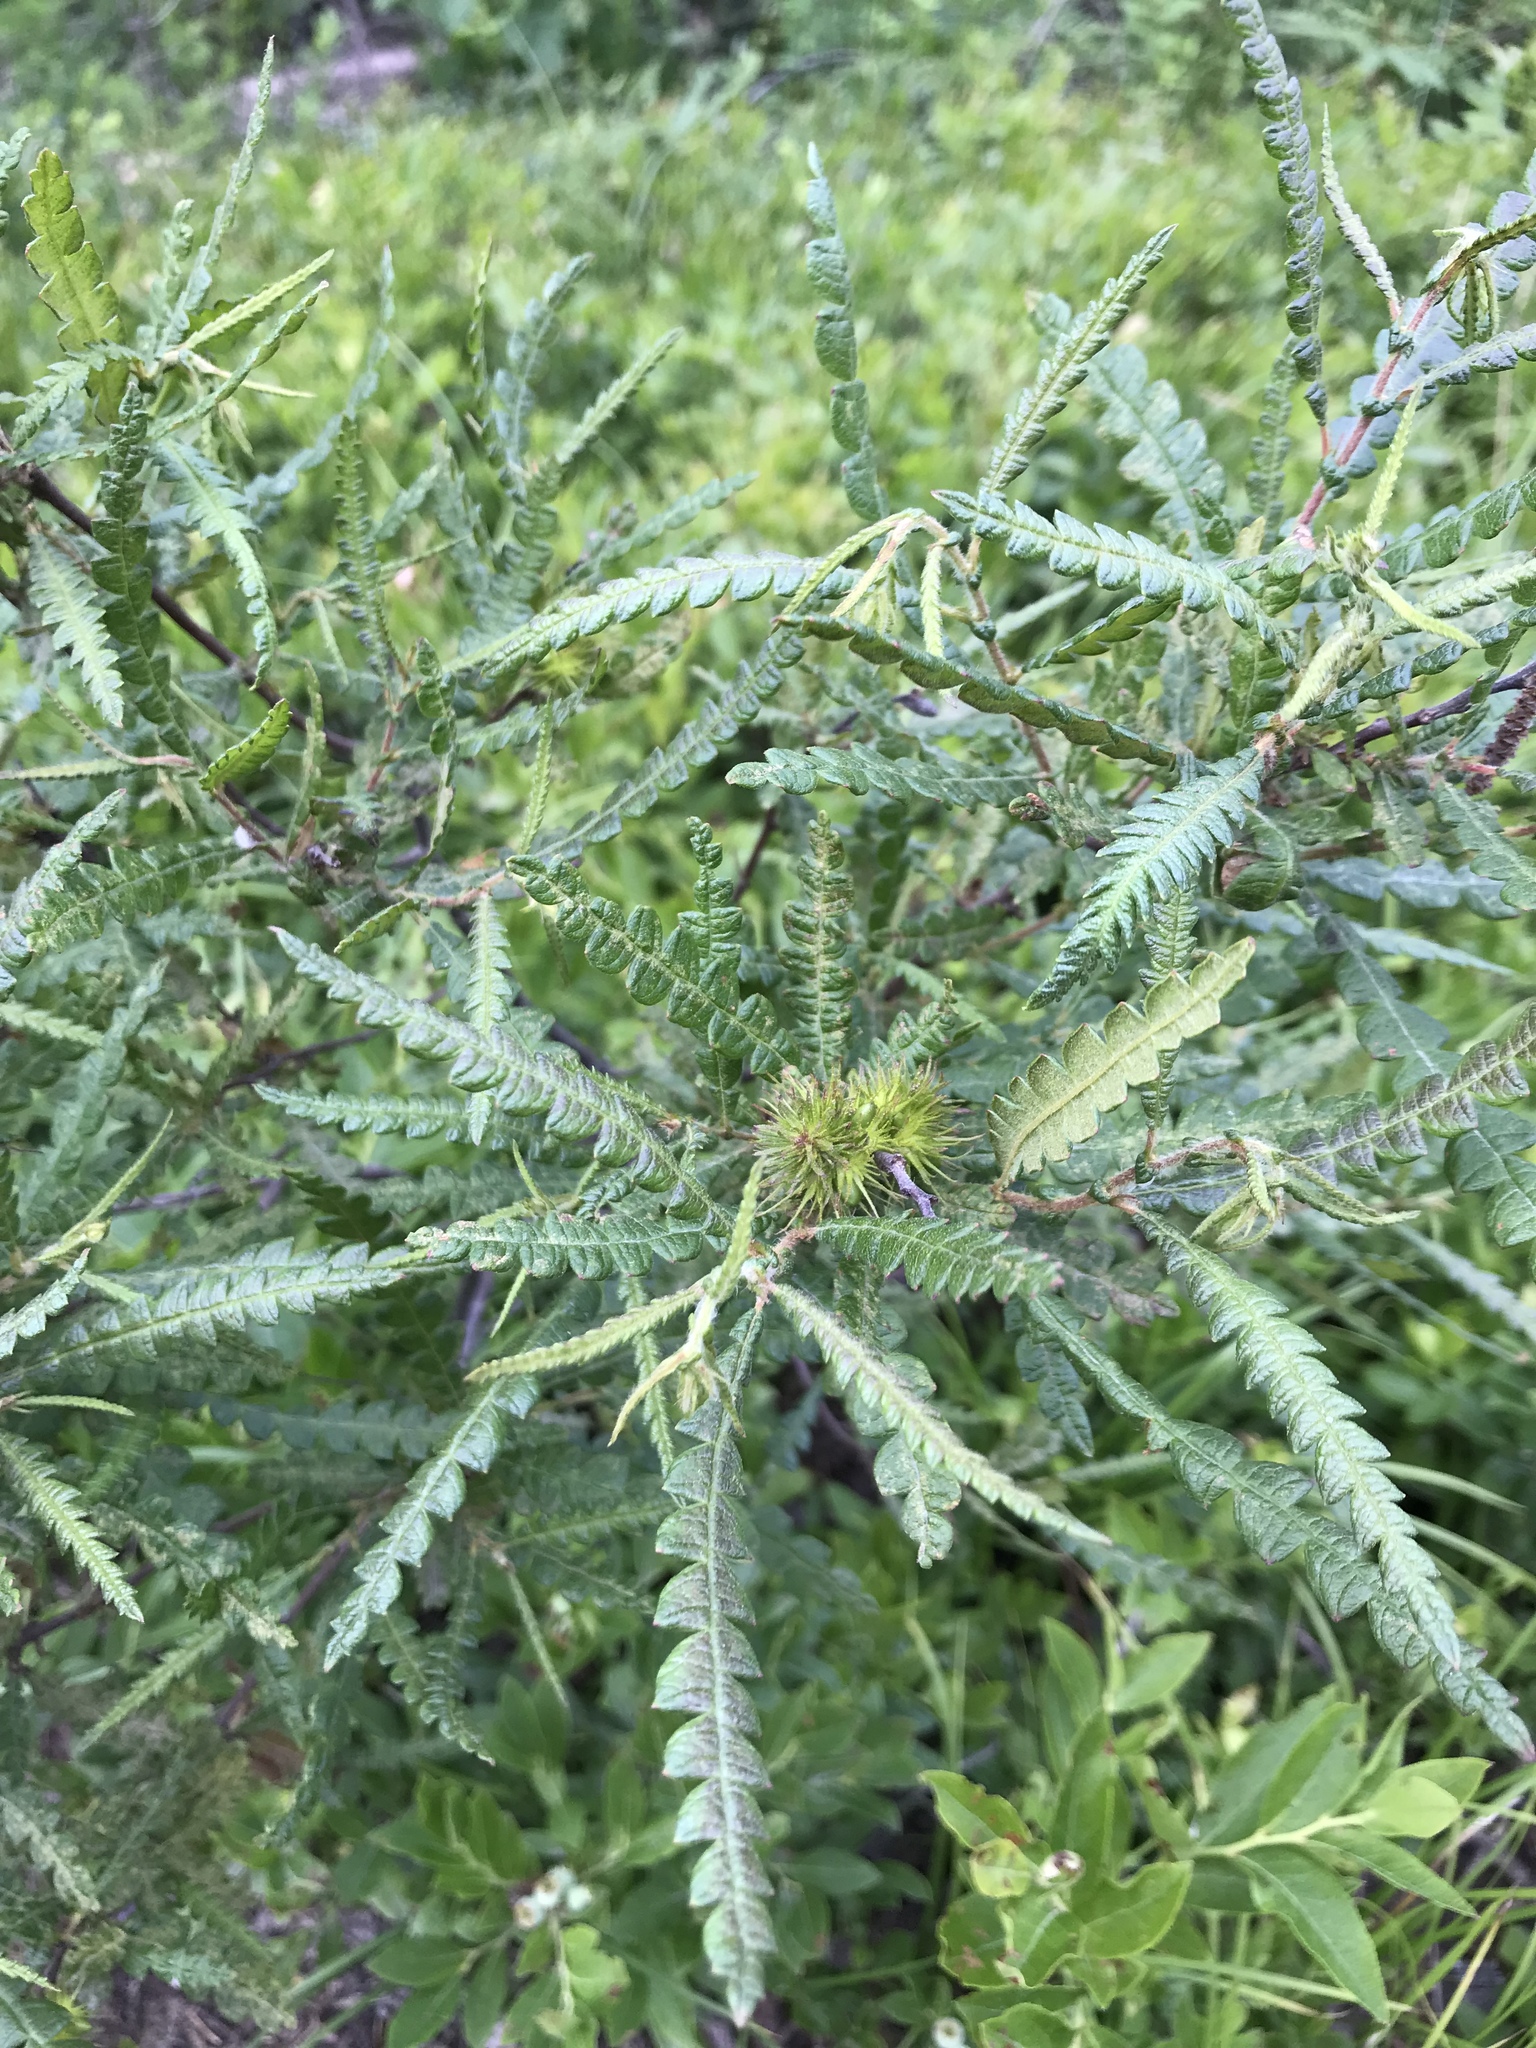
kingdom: Plantae
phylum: Tracheophyta
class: Magnoliopsida
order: Fagales
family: Myricaceae
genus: Comptonia
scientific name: Comptonia peregrina
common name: Sweet-fern
